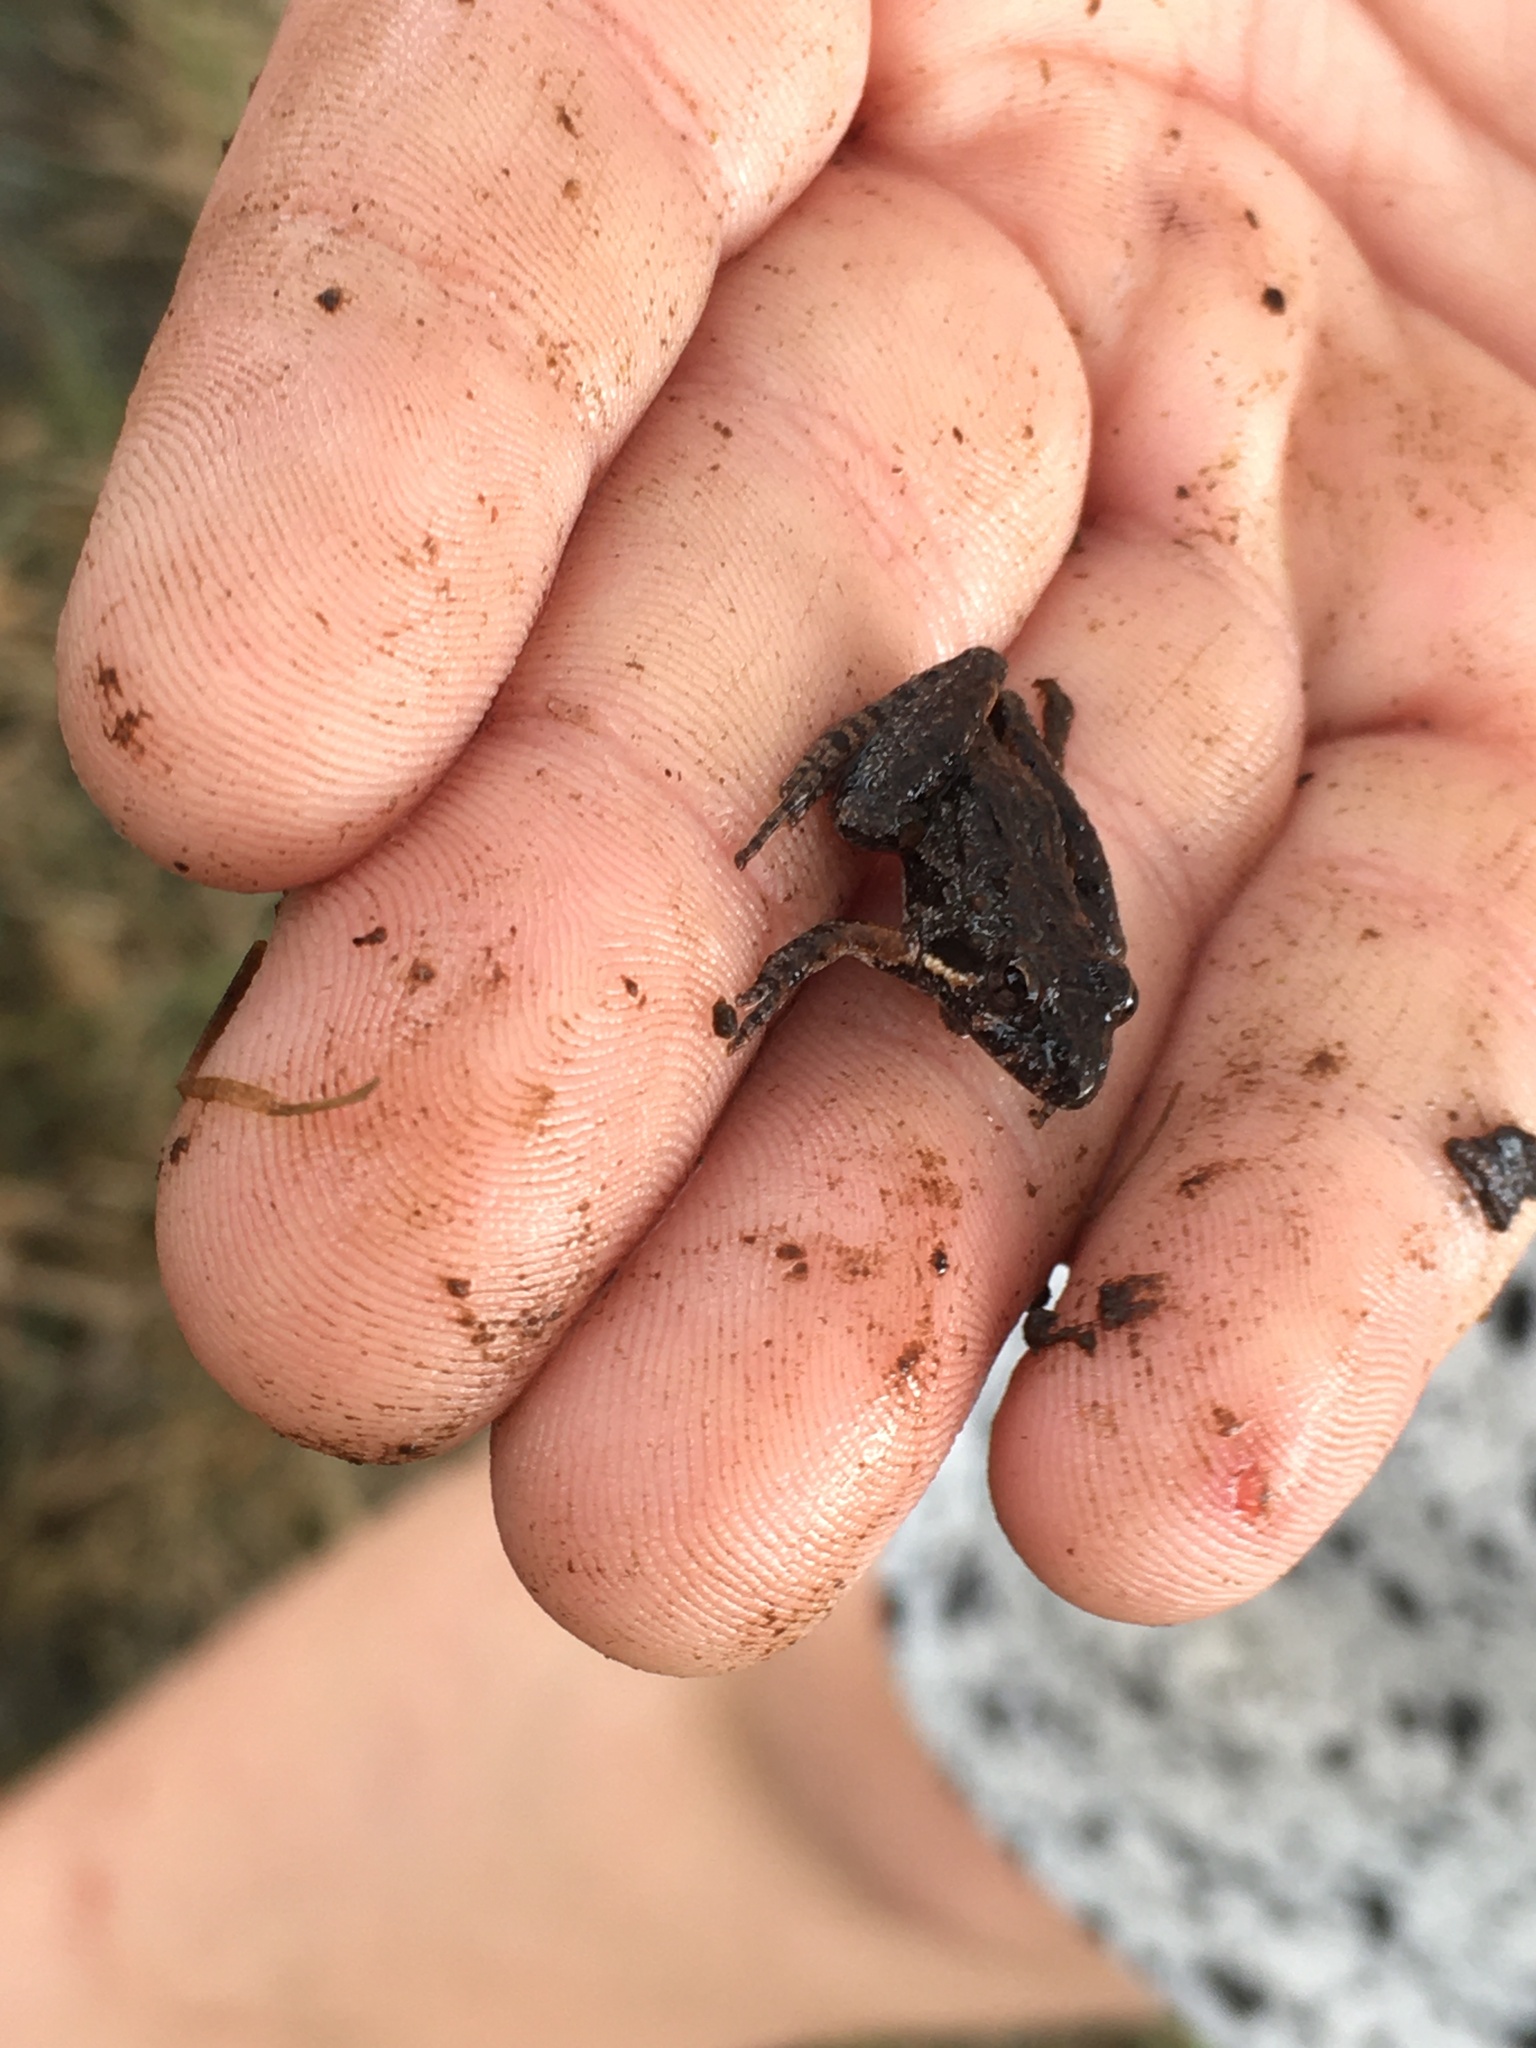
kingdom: Animalia
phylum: Chordata
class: Amphibia
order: Anura
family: Hylidae
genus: Acris
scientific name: Acris gryllus
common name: Southern cricket frog
